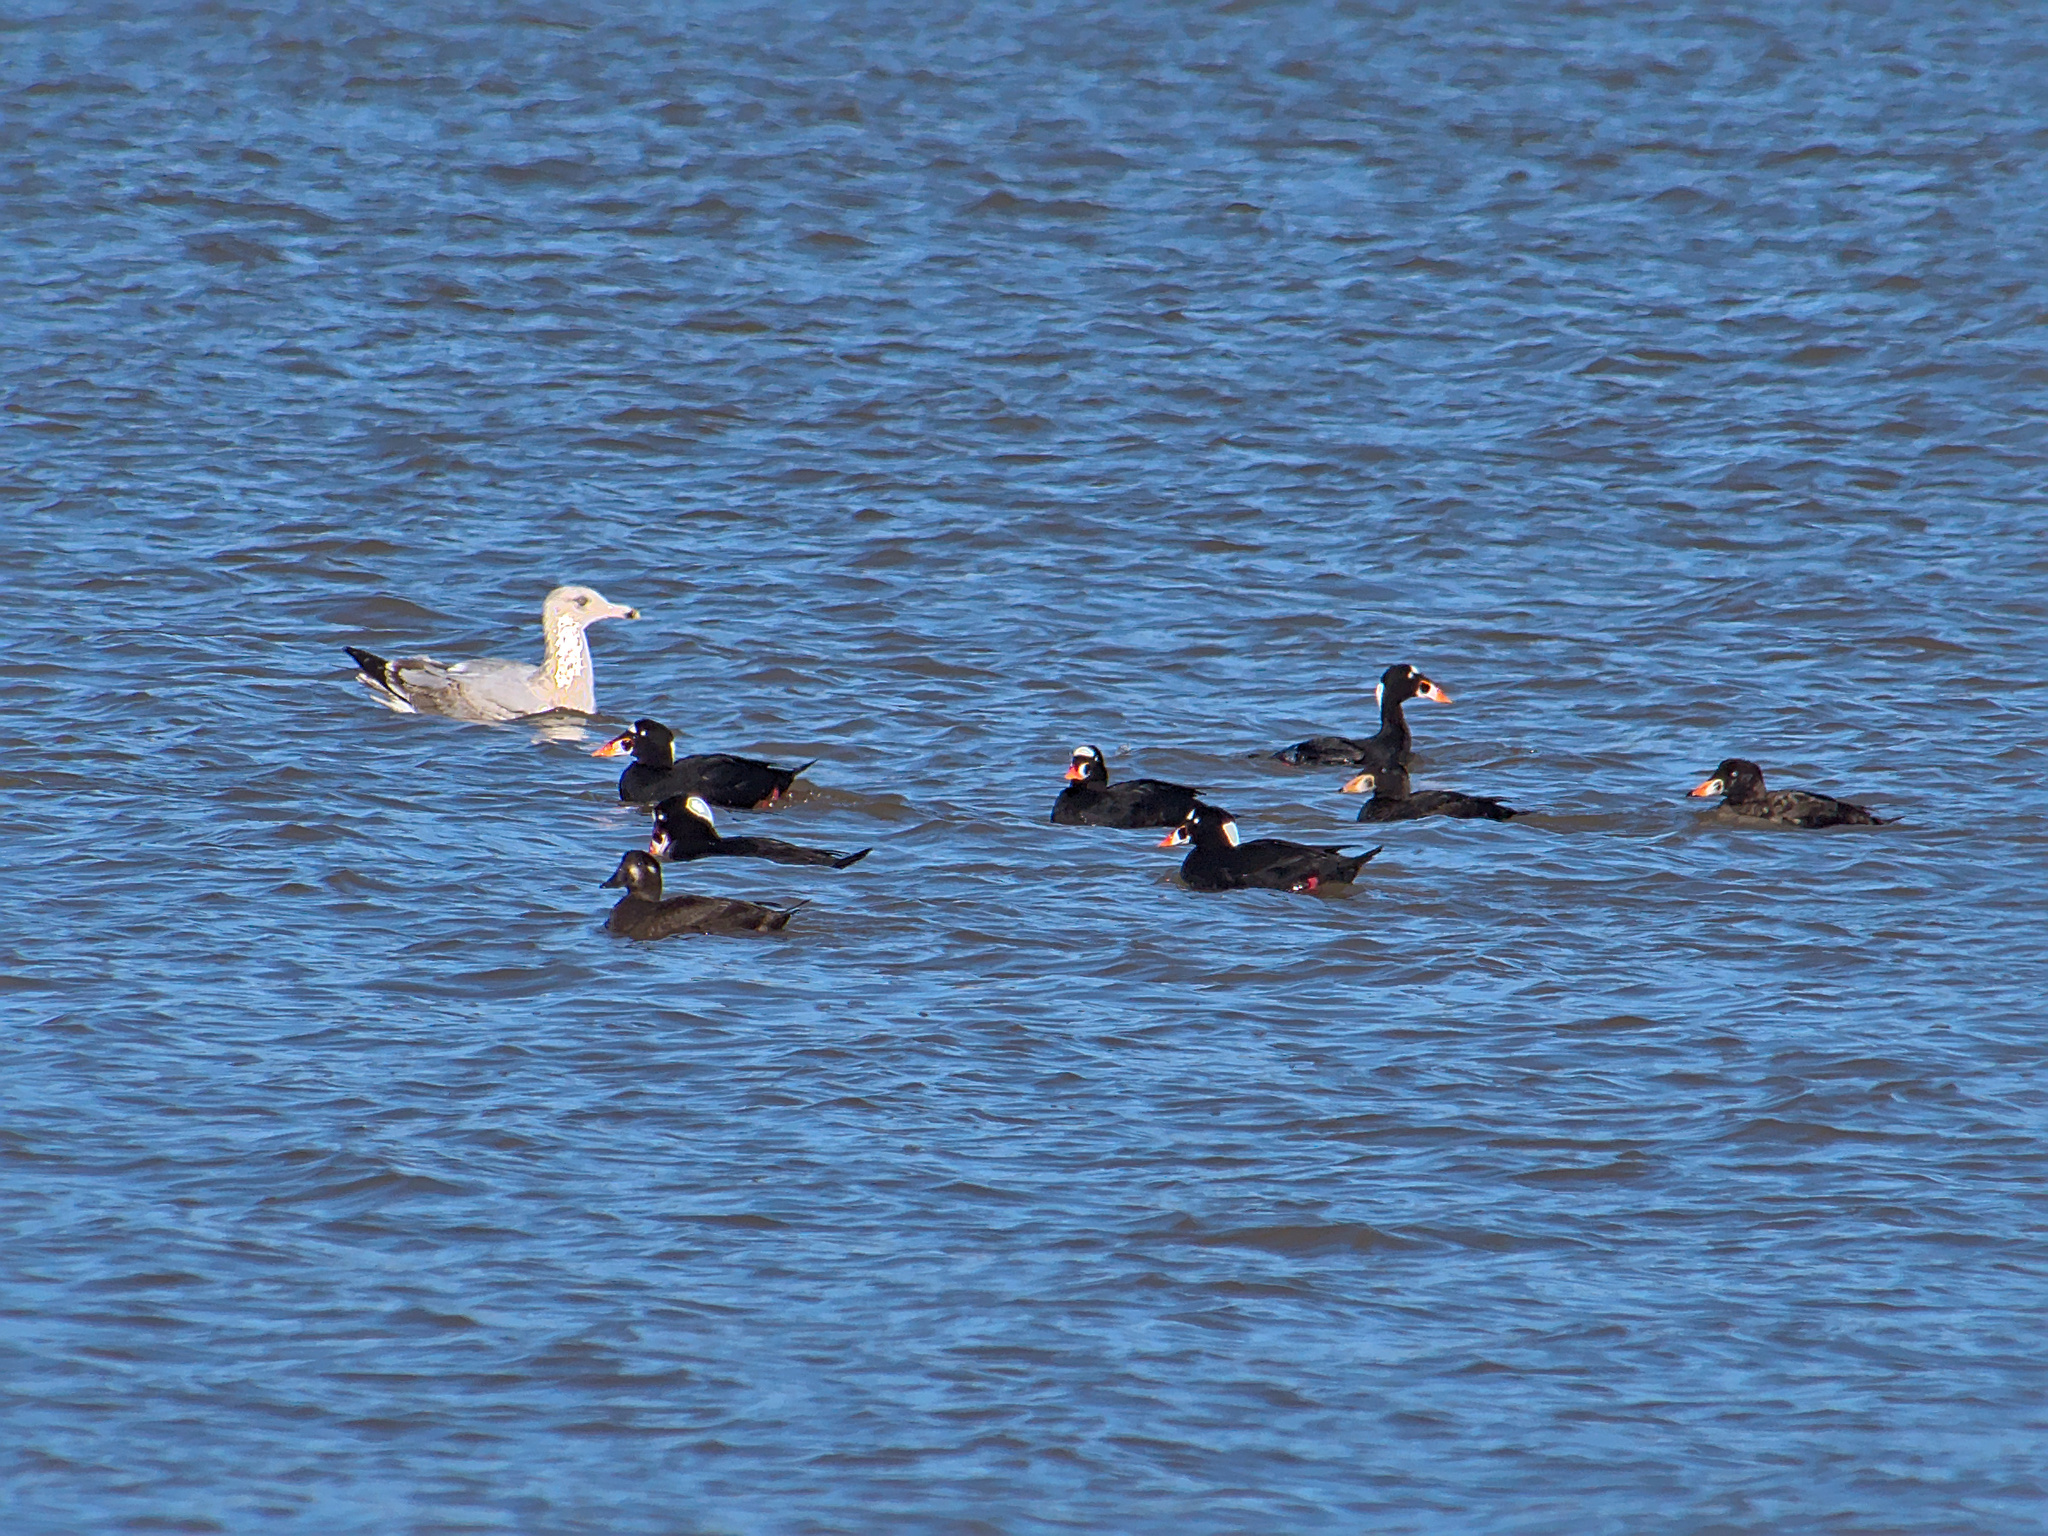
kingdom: Animalia
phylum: Chordata
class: Aves
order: Charadriiformes
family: Laridae
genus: Larus
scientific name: Larus argentatus
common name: Herring gull
